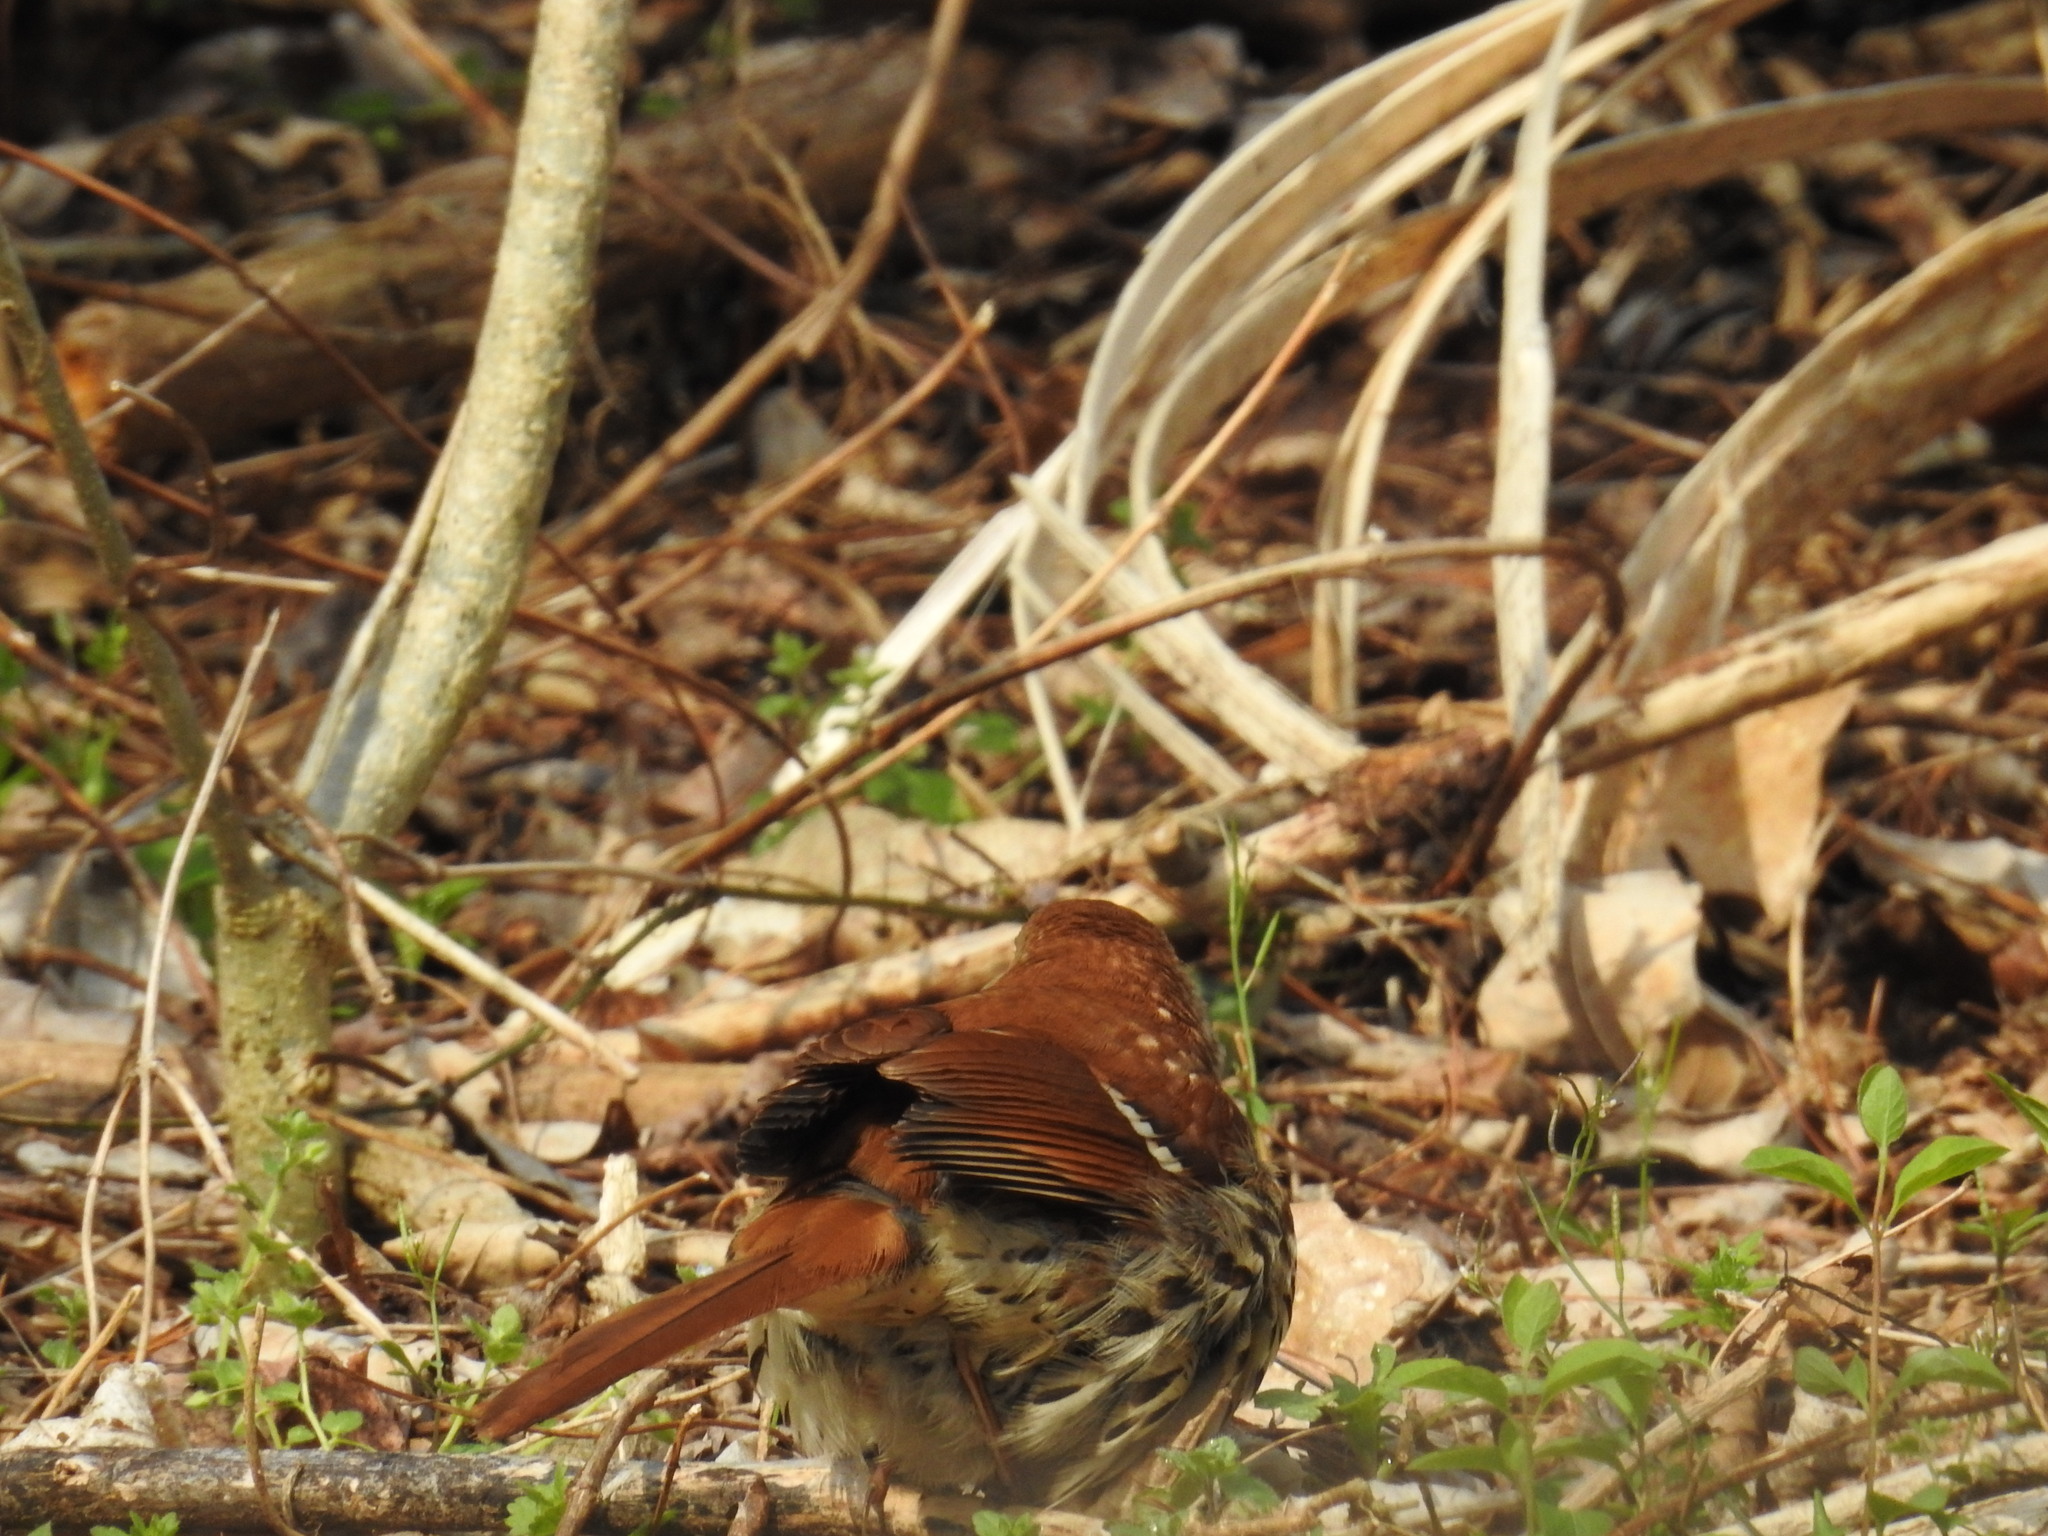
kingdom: Animalia
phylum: Chordata
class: Aves
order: Passeriformes
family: Mimidae
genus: Toxostoma
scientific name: Toxostoma rufum
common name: Brown thrasher
